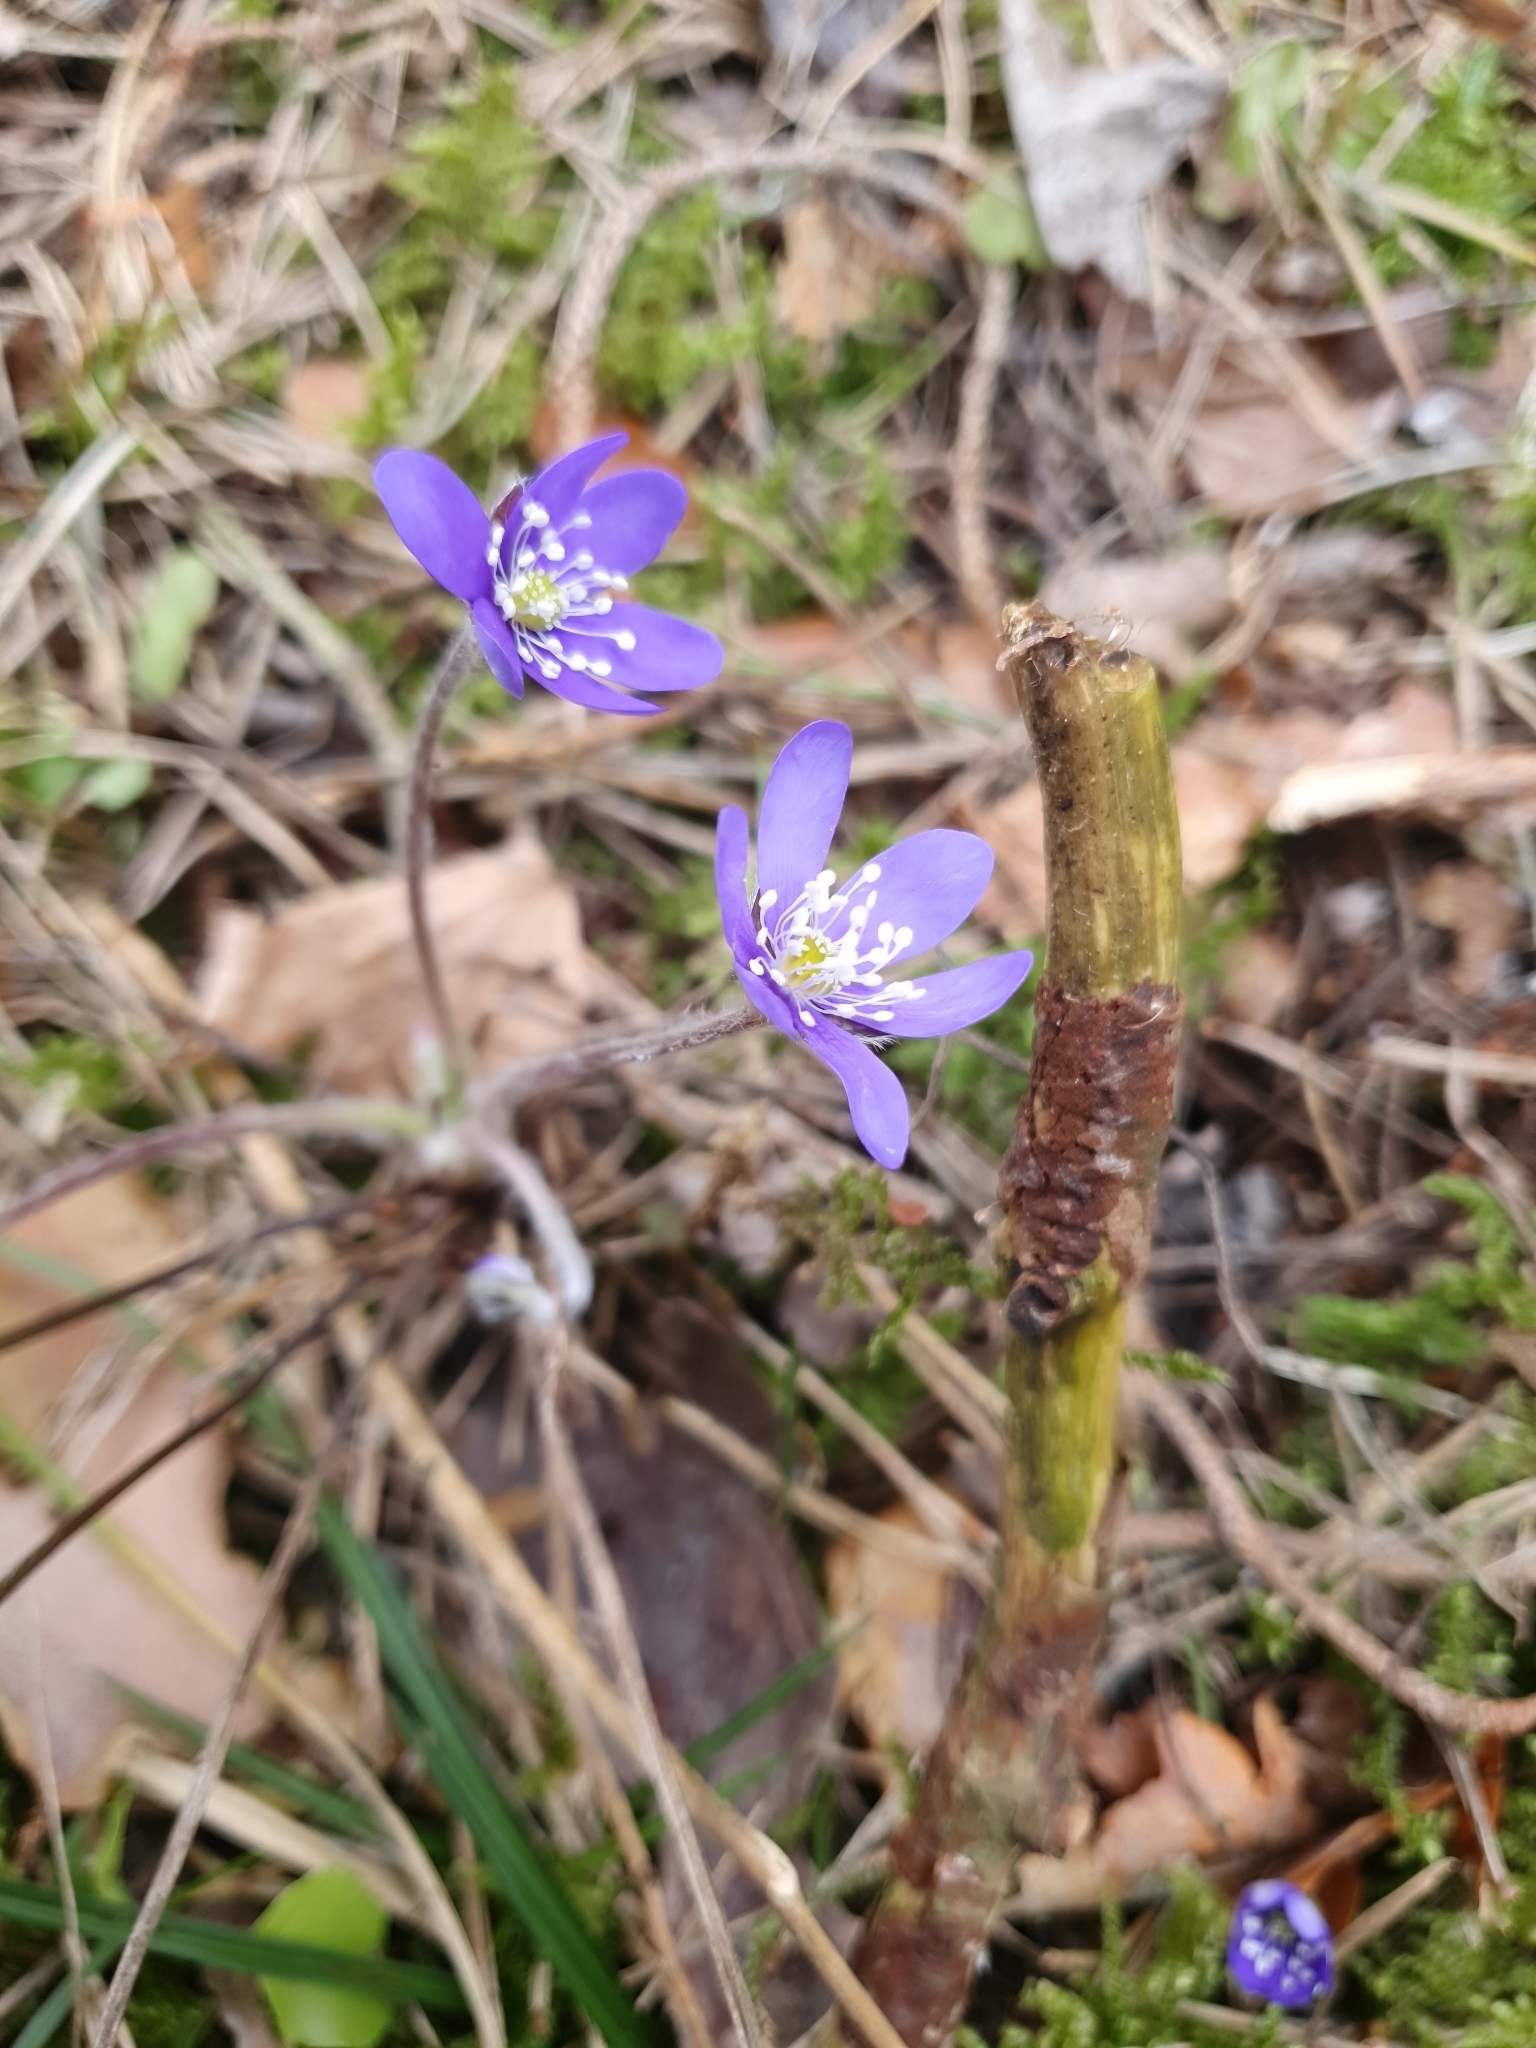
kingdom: Plantae
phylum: Tracheophyta
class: Magnoliopsida
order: Ranunculales
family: Ranunculaceae
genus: Hepatica
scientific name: Hepatica nobilis
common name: Liverleaf
